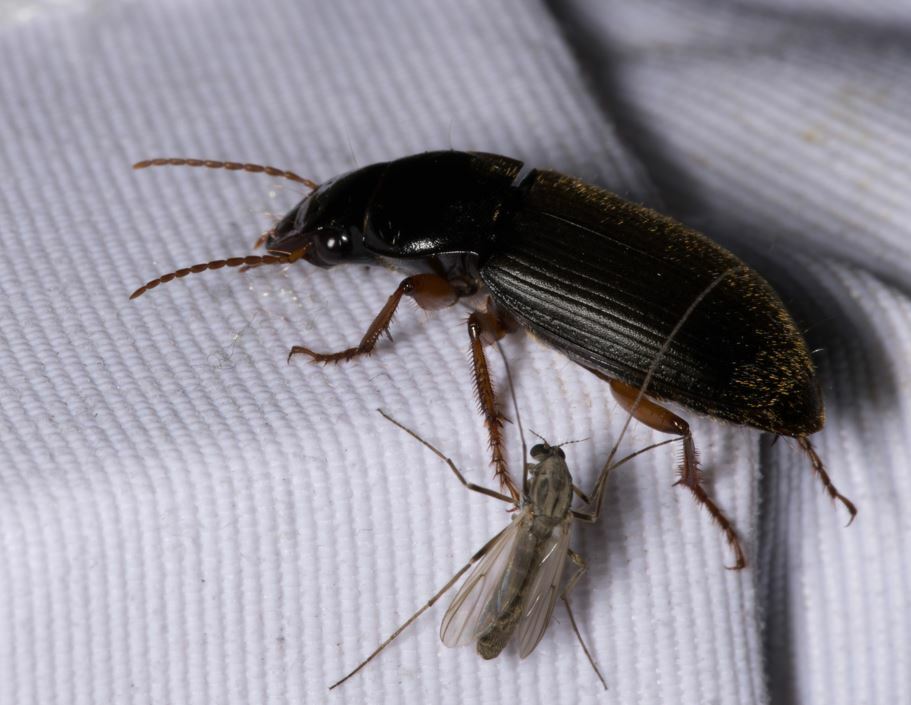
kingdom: Animalia
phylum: Arthropoda
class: Insecta
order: Coleoptera
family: Carabidae
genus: Harpalus
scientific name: Harpalus rufipes
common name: Strawberry harp ground beetle
